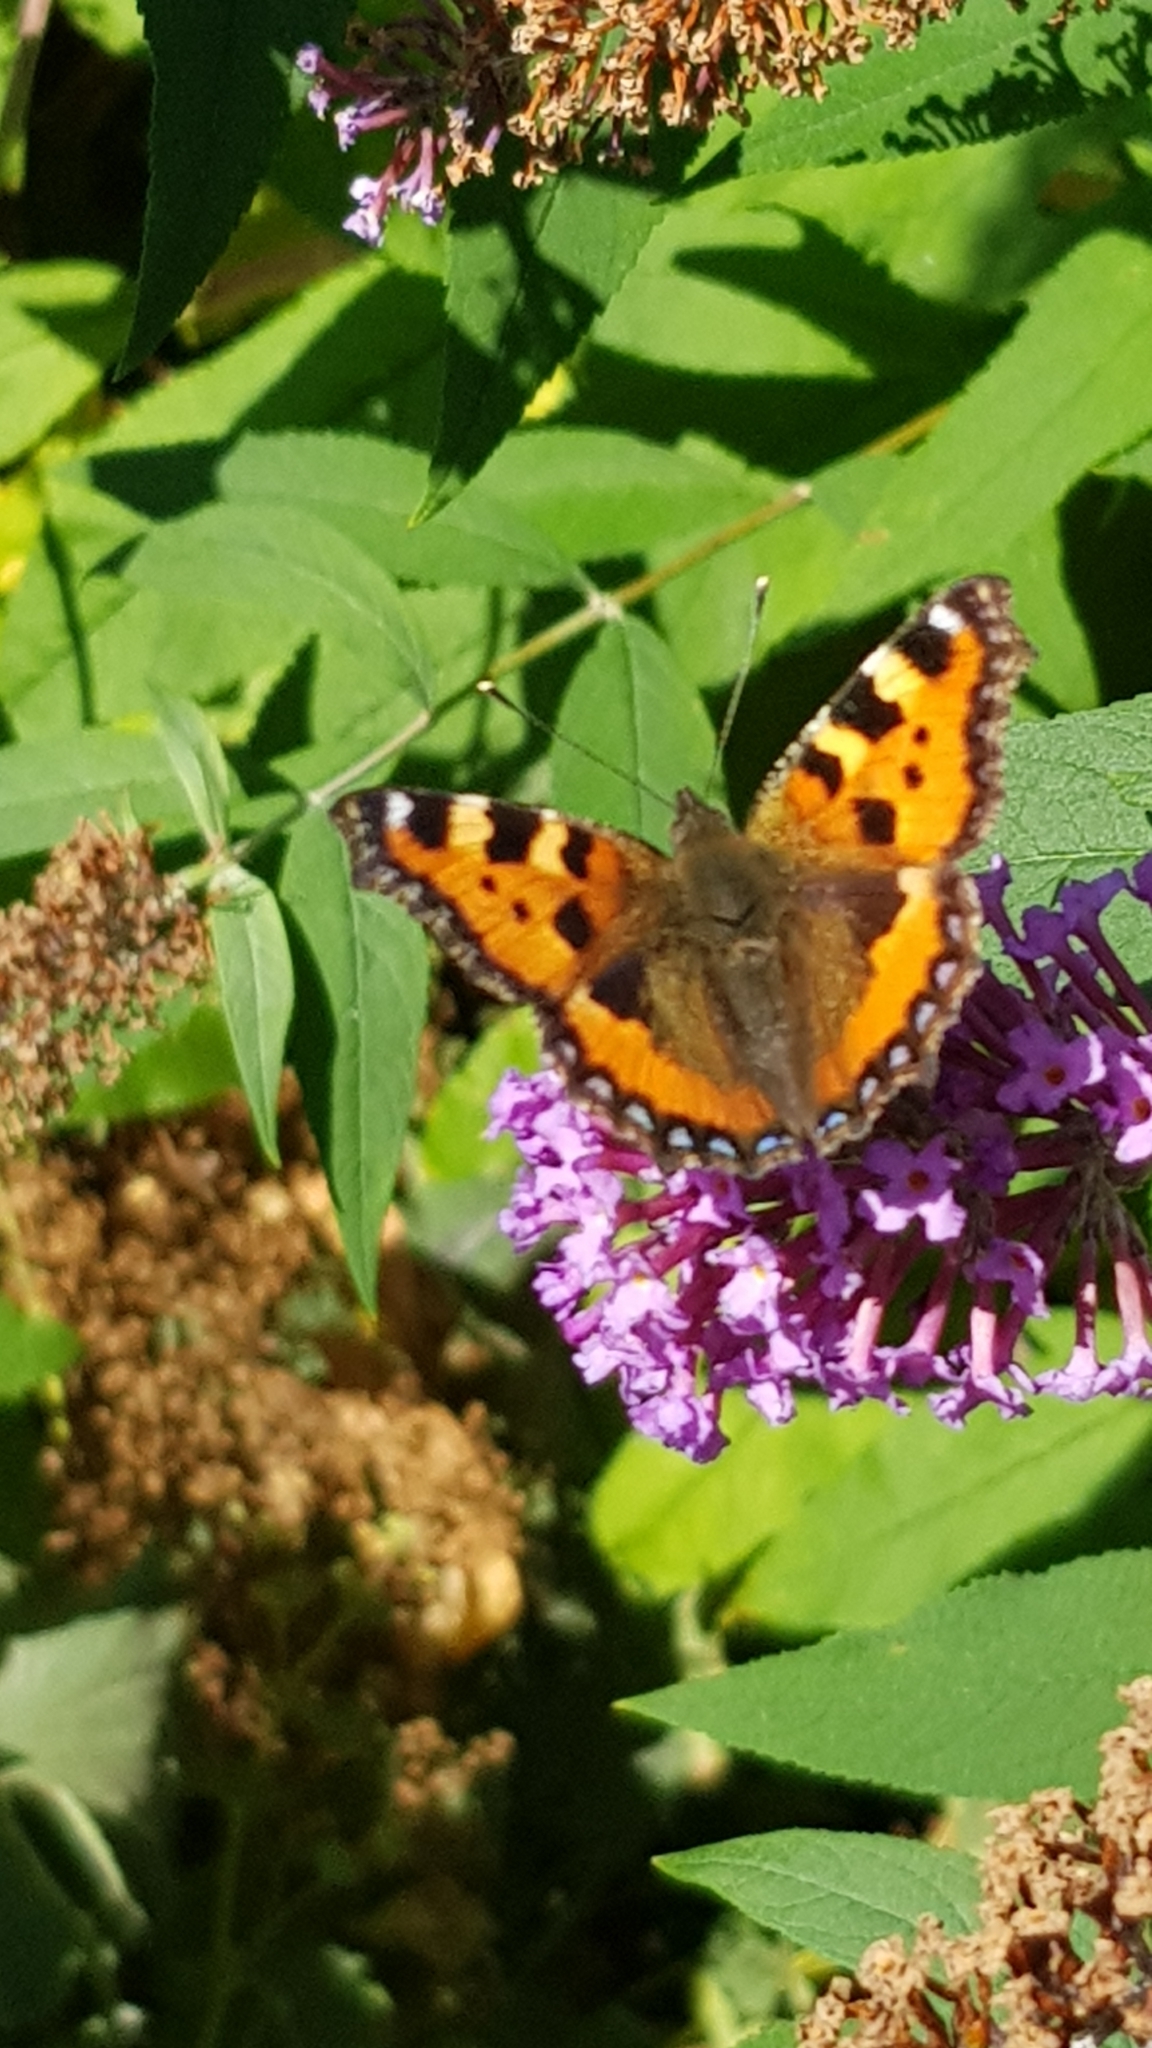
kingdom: Animalia
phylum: Arthropoda
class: Insecta
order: Lepidoptera
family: Nymphalidae
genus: Aglais
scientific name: Aglais urticae
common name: Small tortoiseshell
